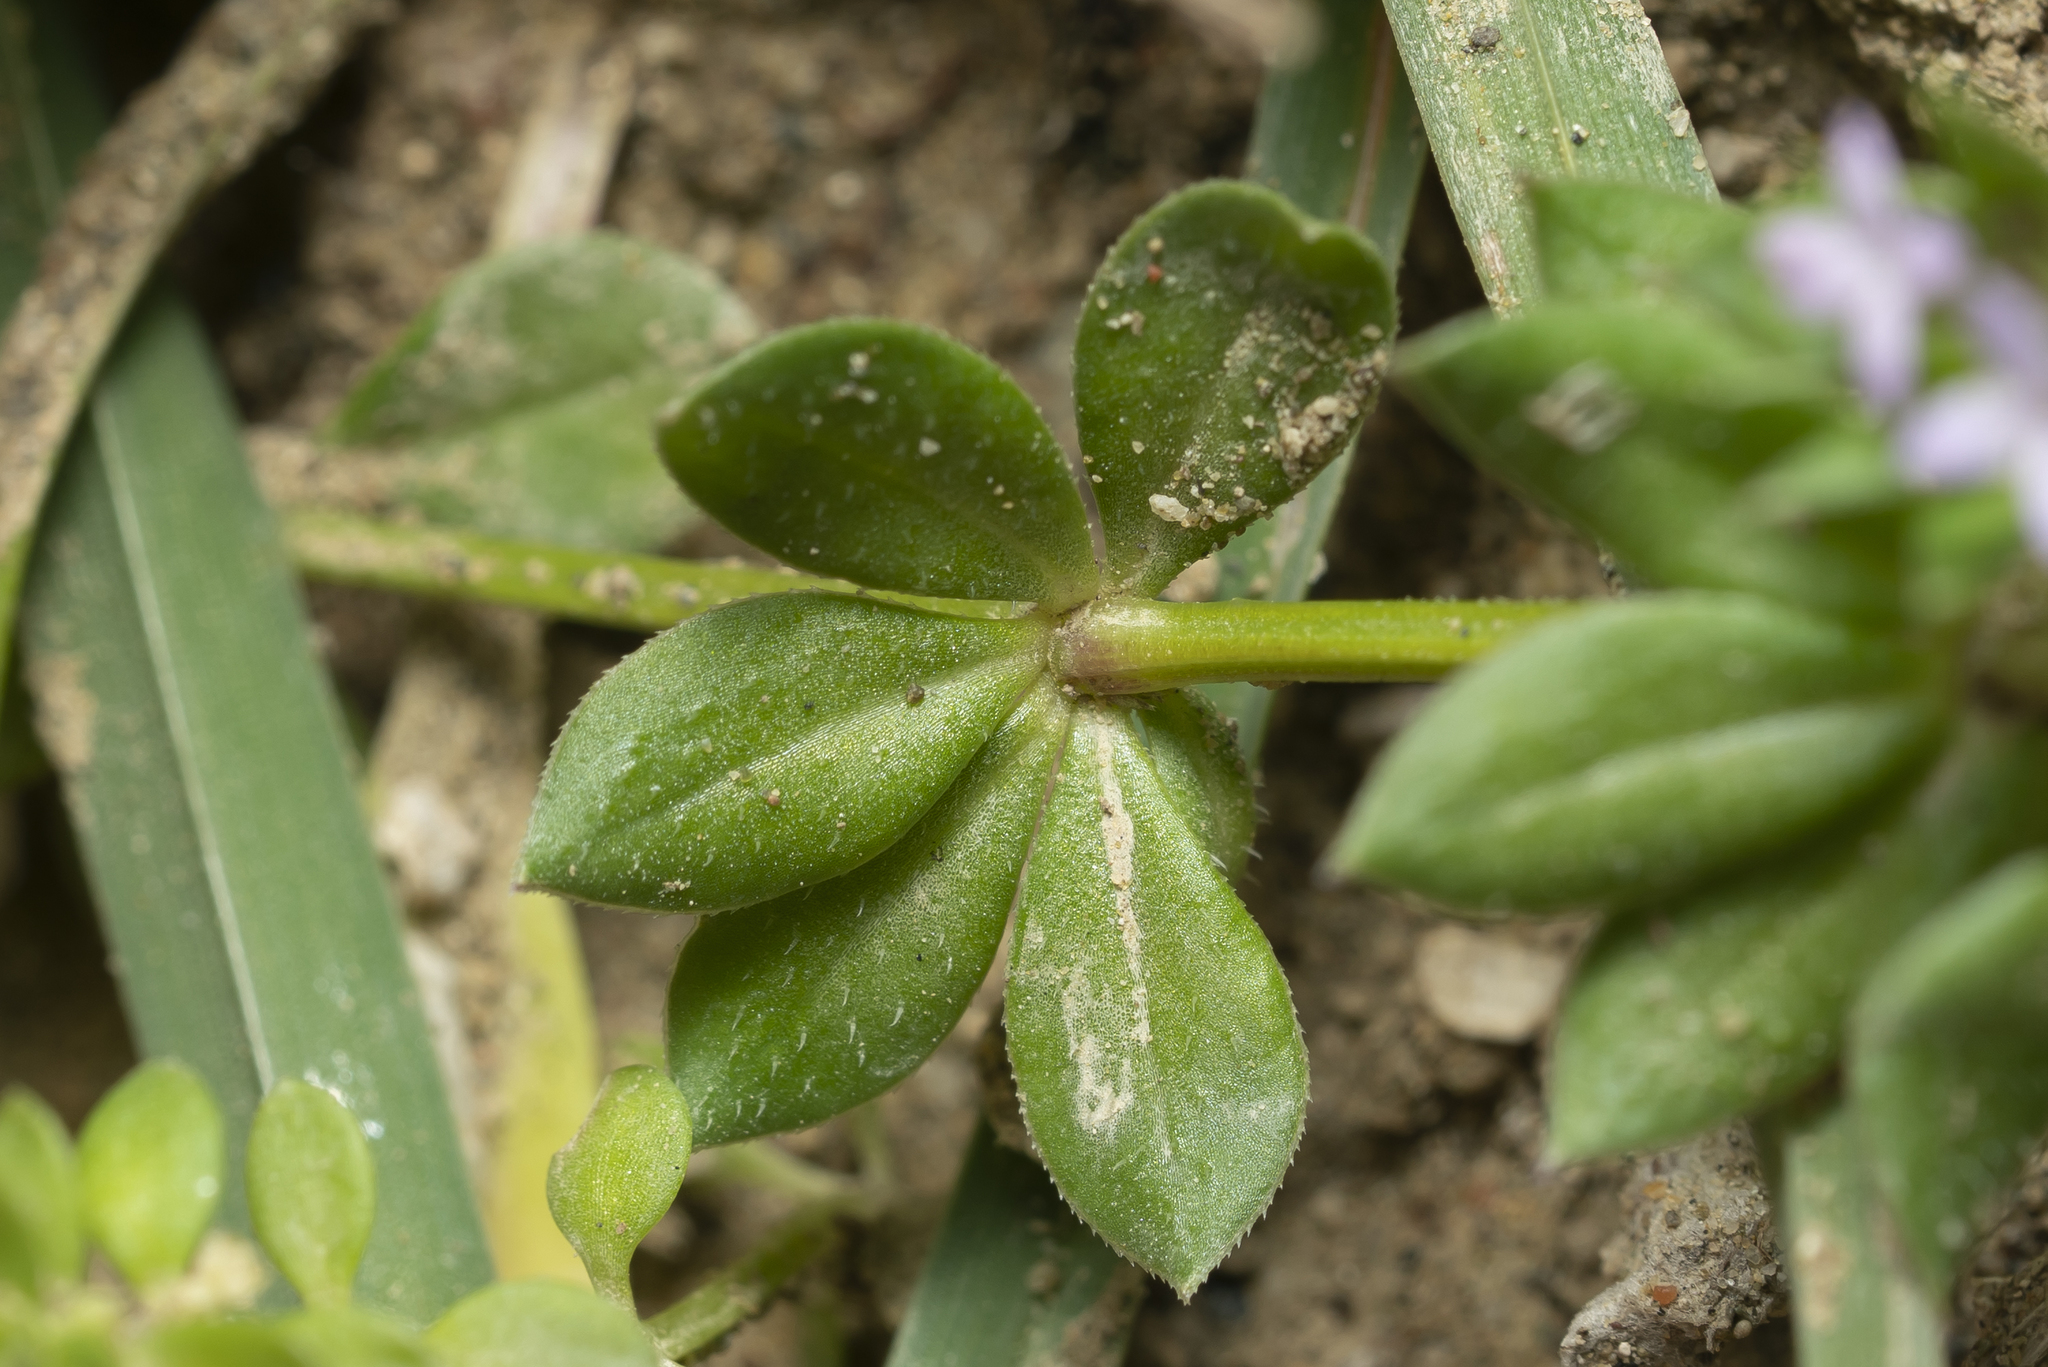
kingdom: Plantae
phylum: Tracheophyta
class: Magnoliopsida
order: Gentianales
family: Rubiaceae
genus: Sherardia
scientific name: Sherardia arvensis
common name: Field madder
